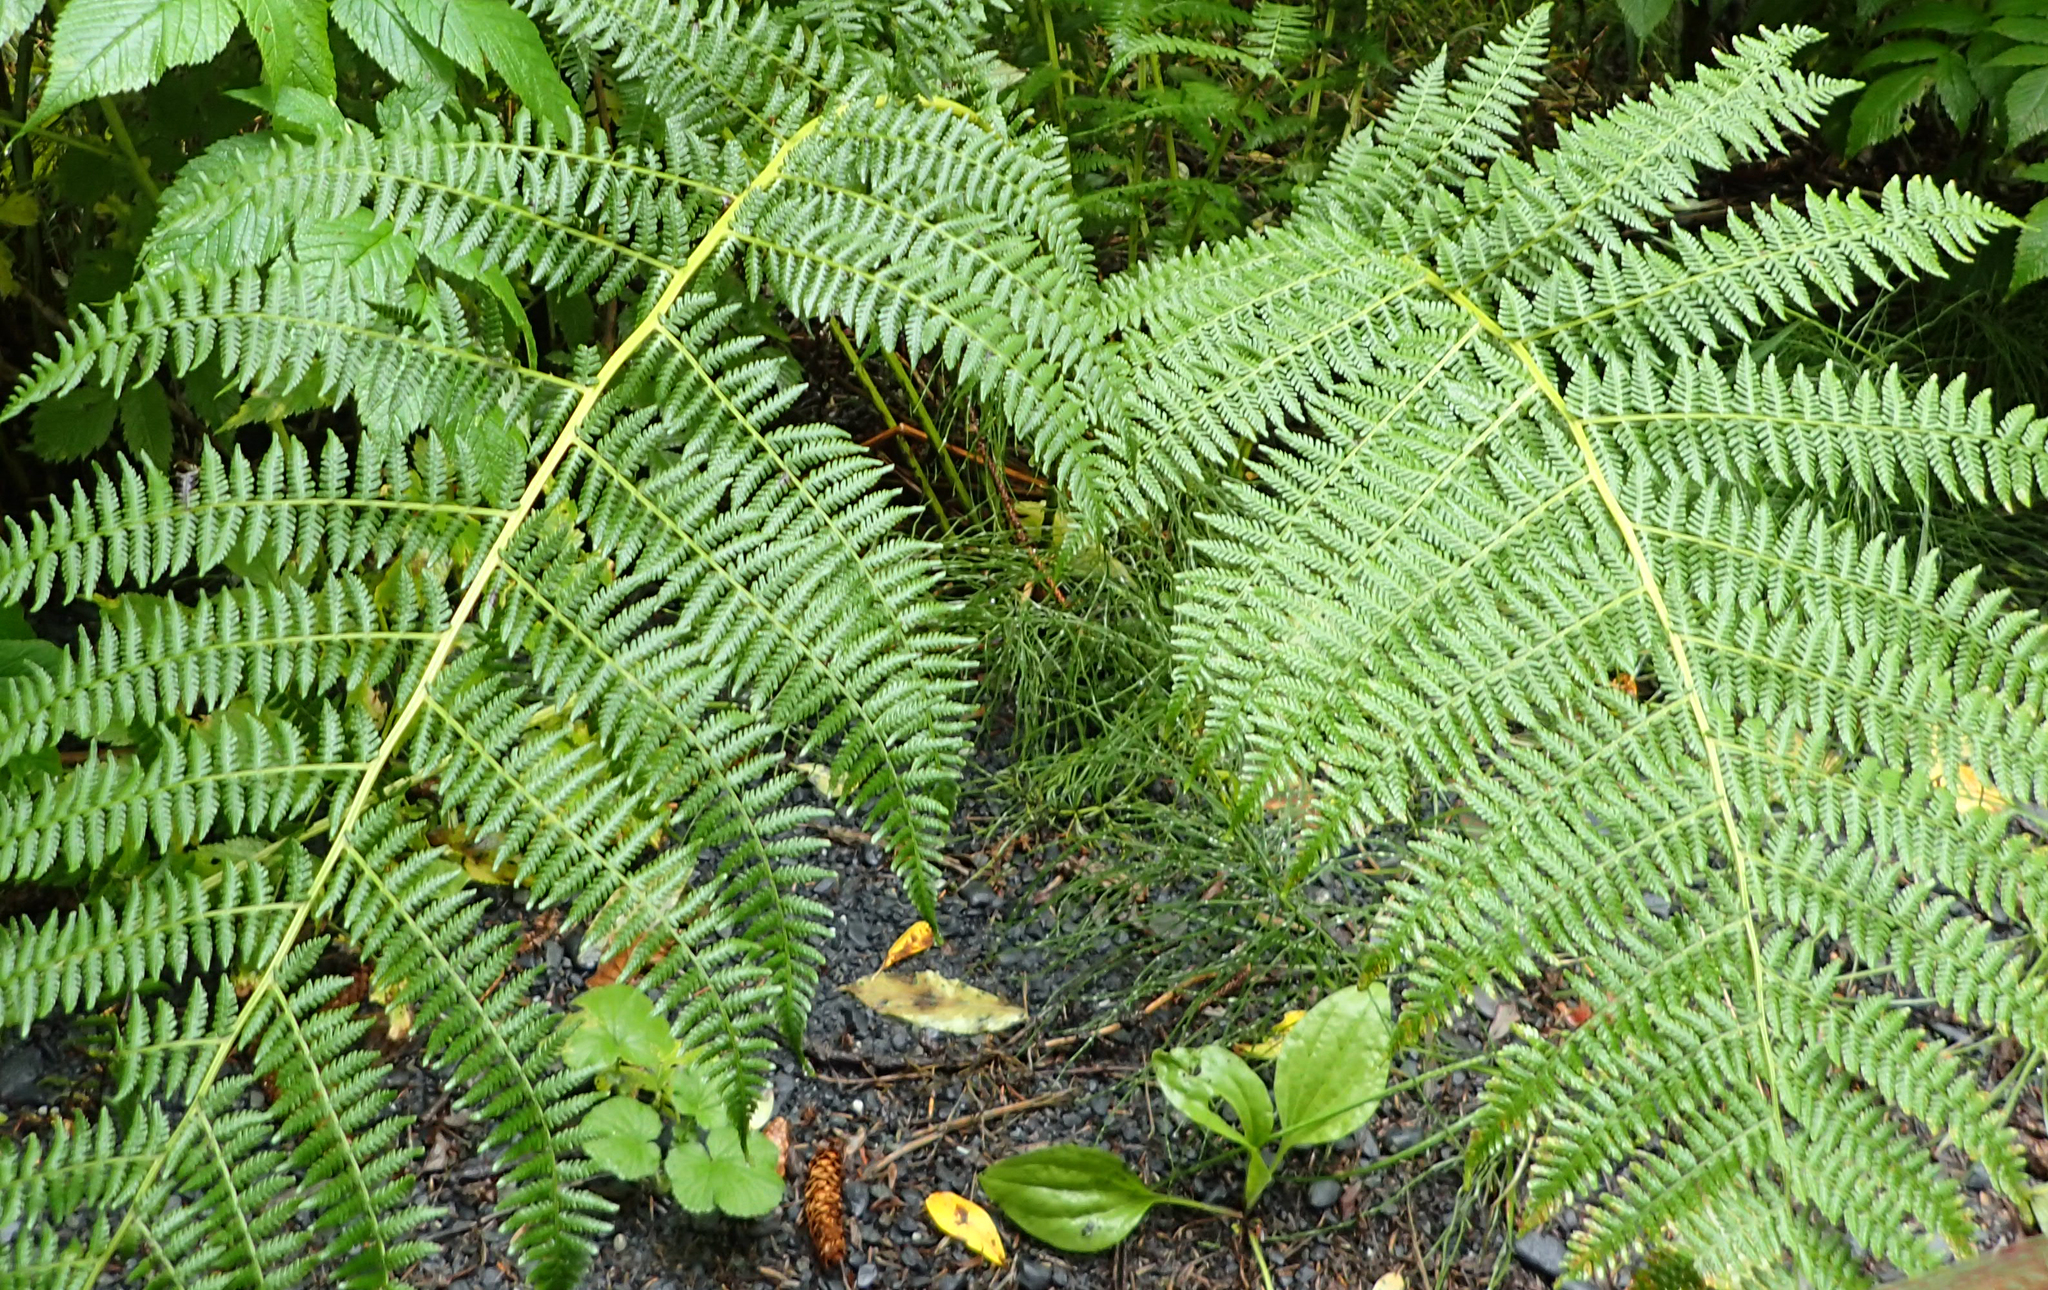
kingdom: Plantae
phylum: Tracheophyta
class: Polypodiopsida
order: Polypodiales
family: Athyriaceae
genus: Athyrium
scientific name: Athyrium filix-femina
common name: Lady fern
